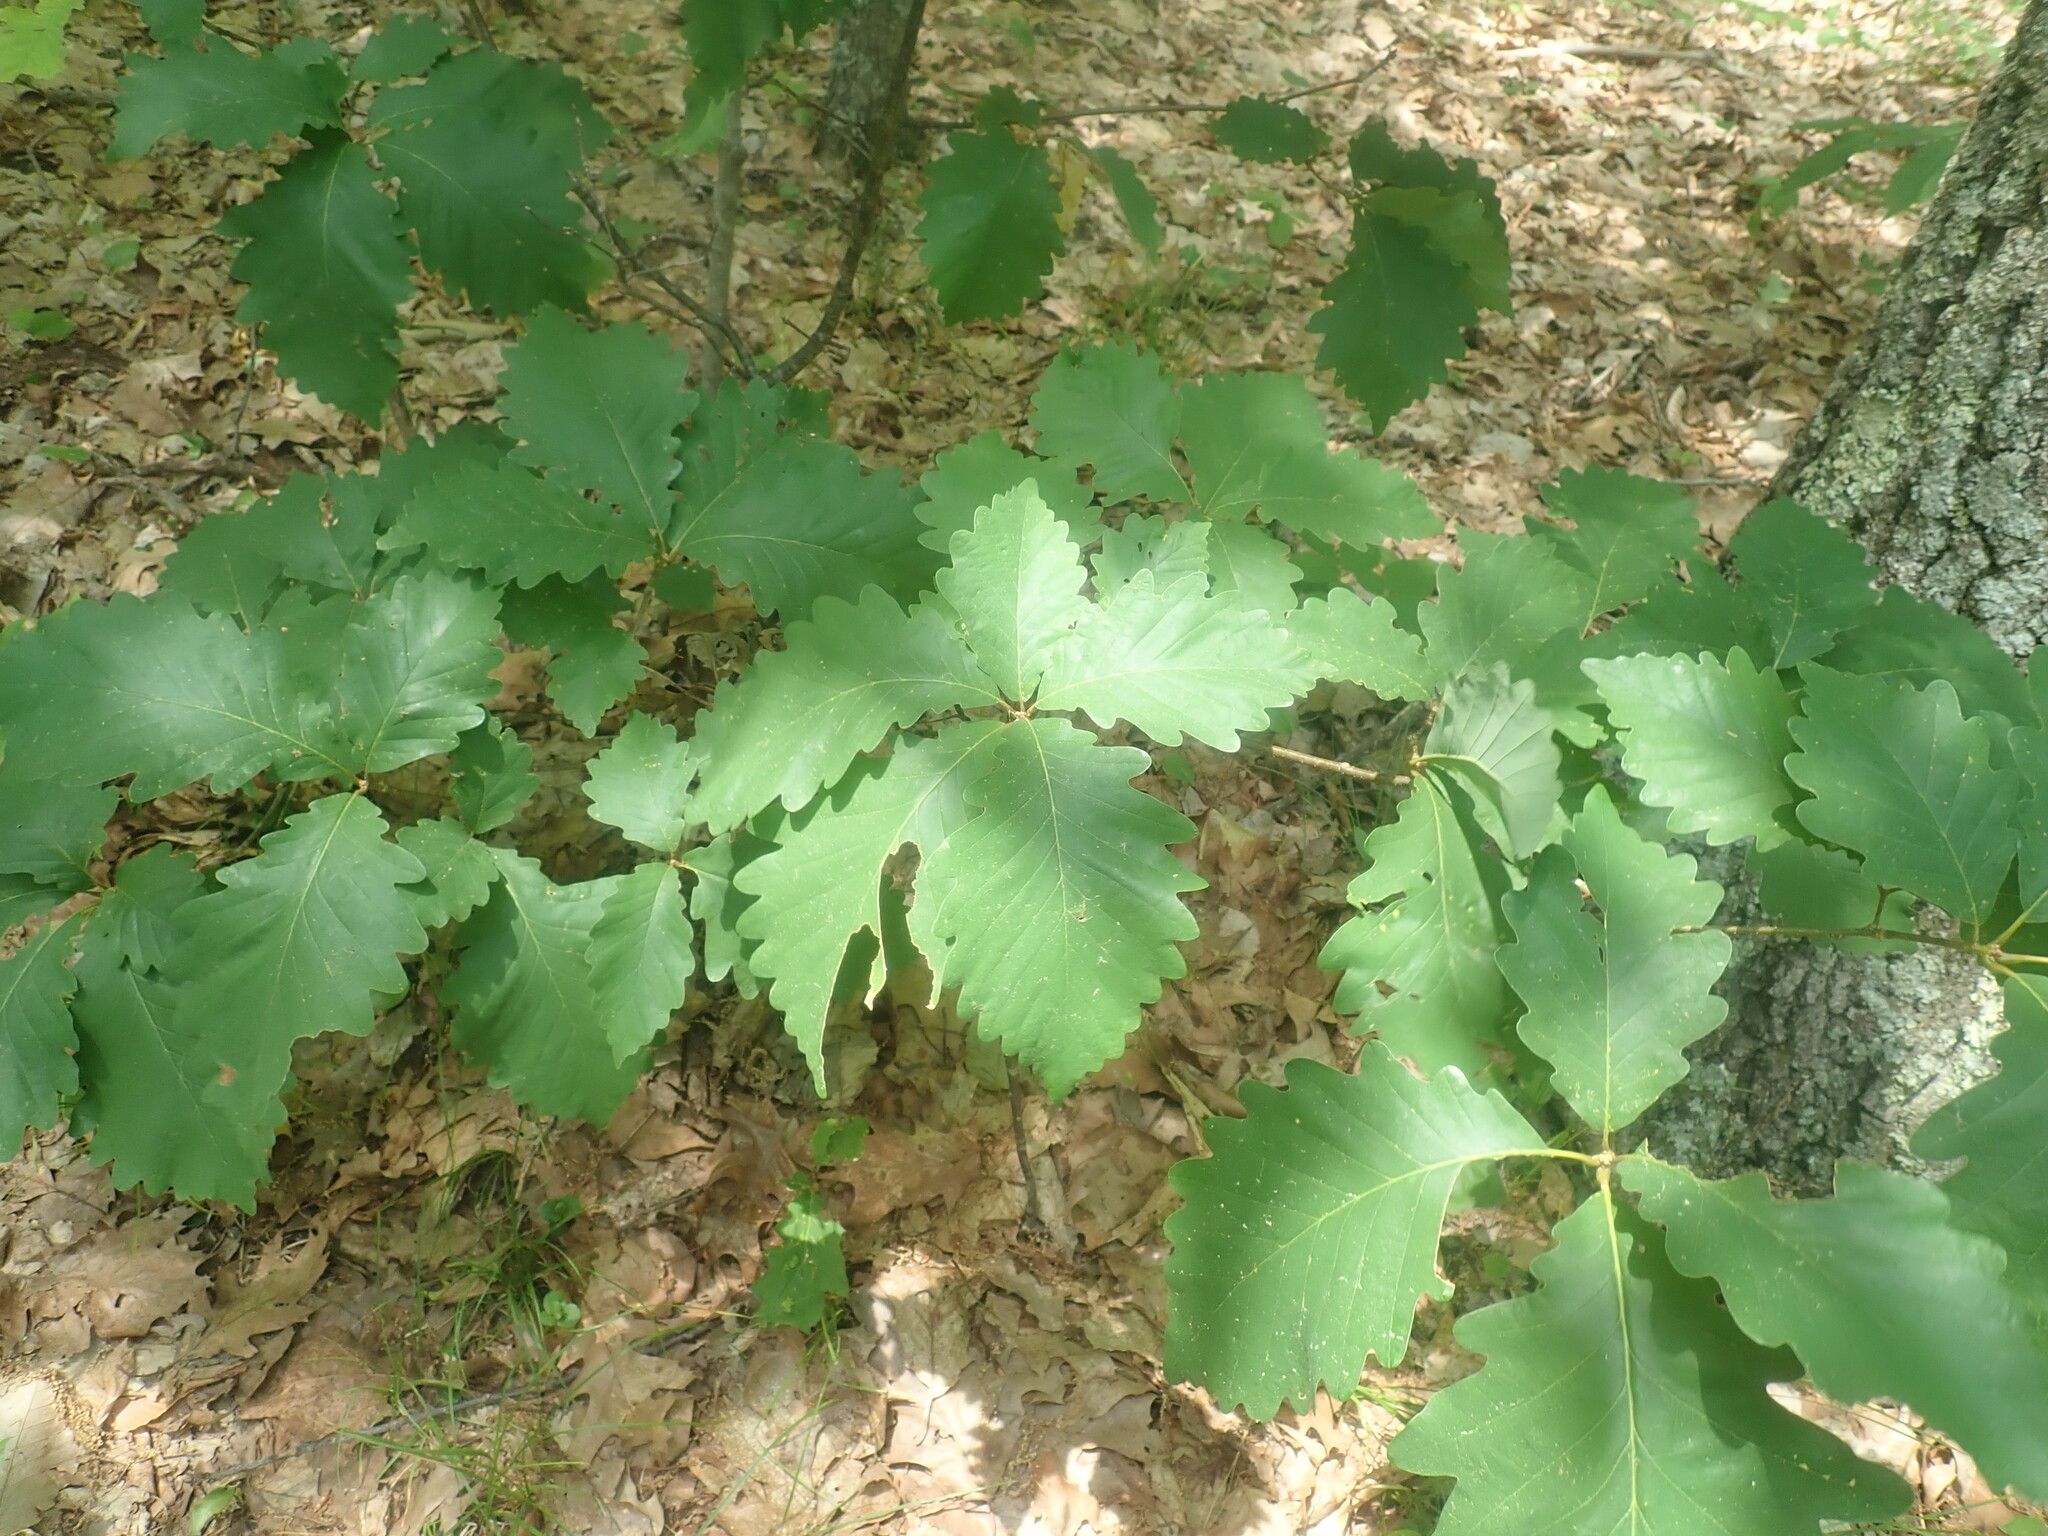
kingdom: Plantae
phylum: Tracheophyta
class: Magnoliopsida
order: Fagales
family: Fagaceae
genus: Quercus
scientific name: Quercus montana
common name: Chestnut oak
